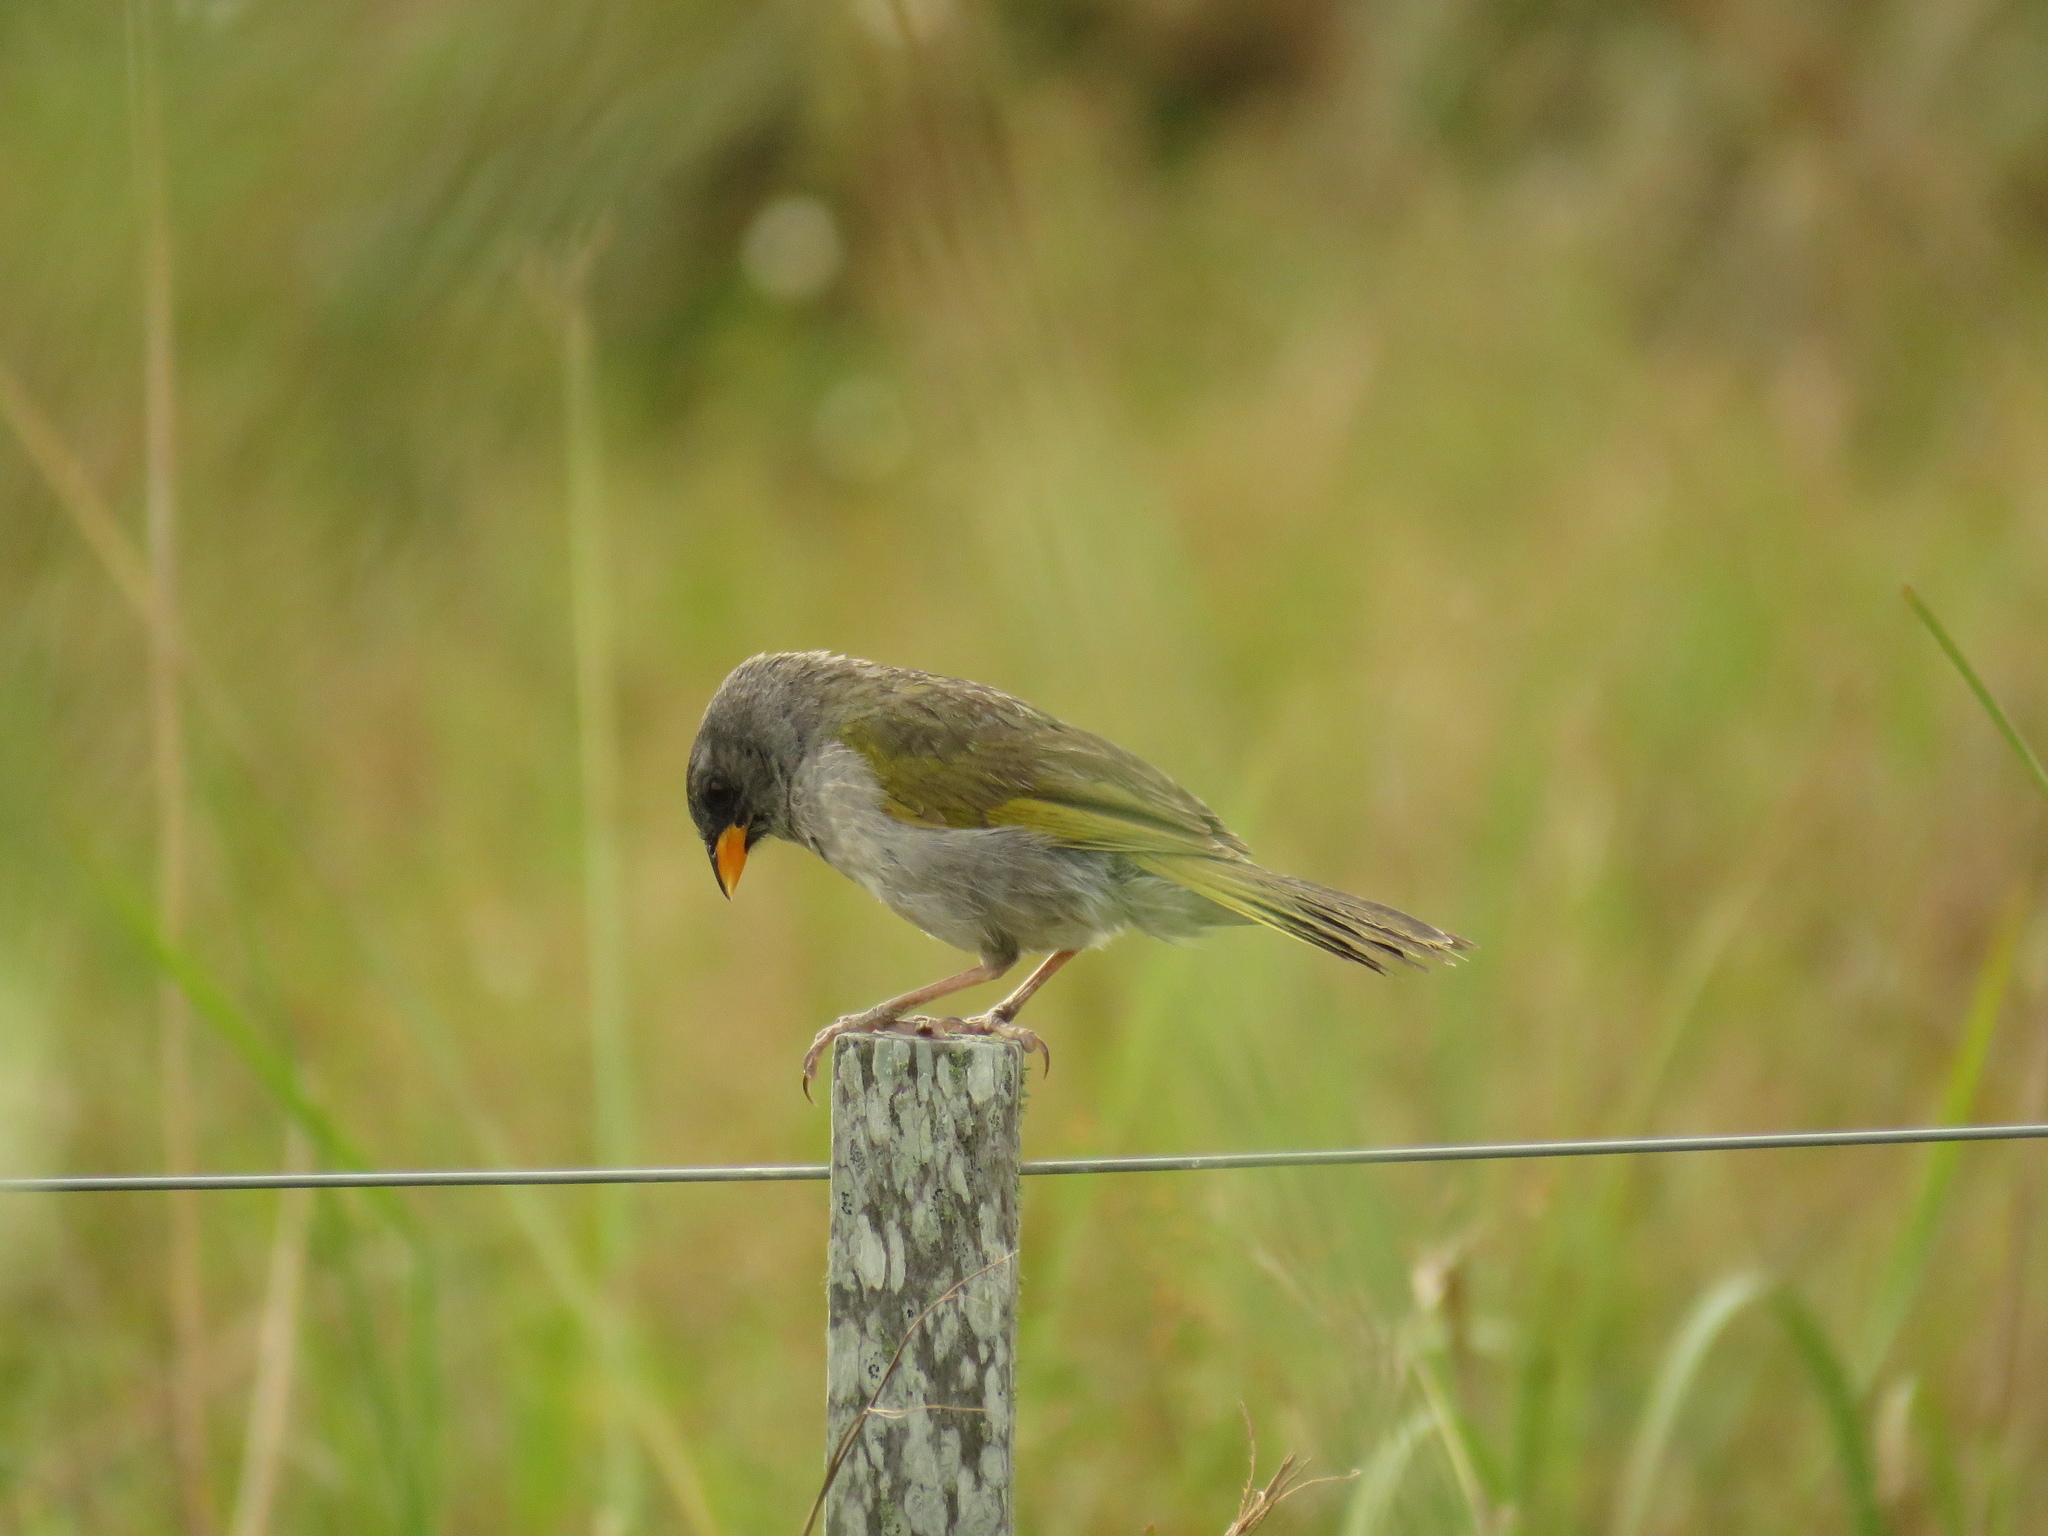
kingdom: Animalia
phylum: Chordata
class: Aves
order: Passeriformes
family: Thraupidae
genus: Embernagra
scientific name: Embernagra platensis
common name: Pampa finch
